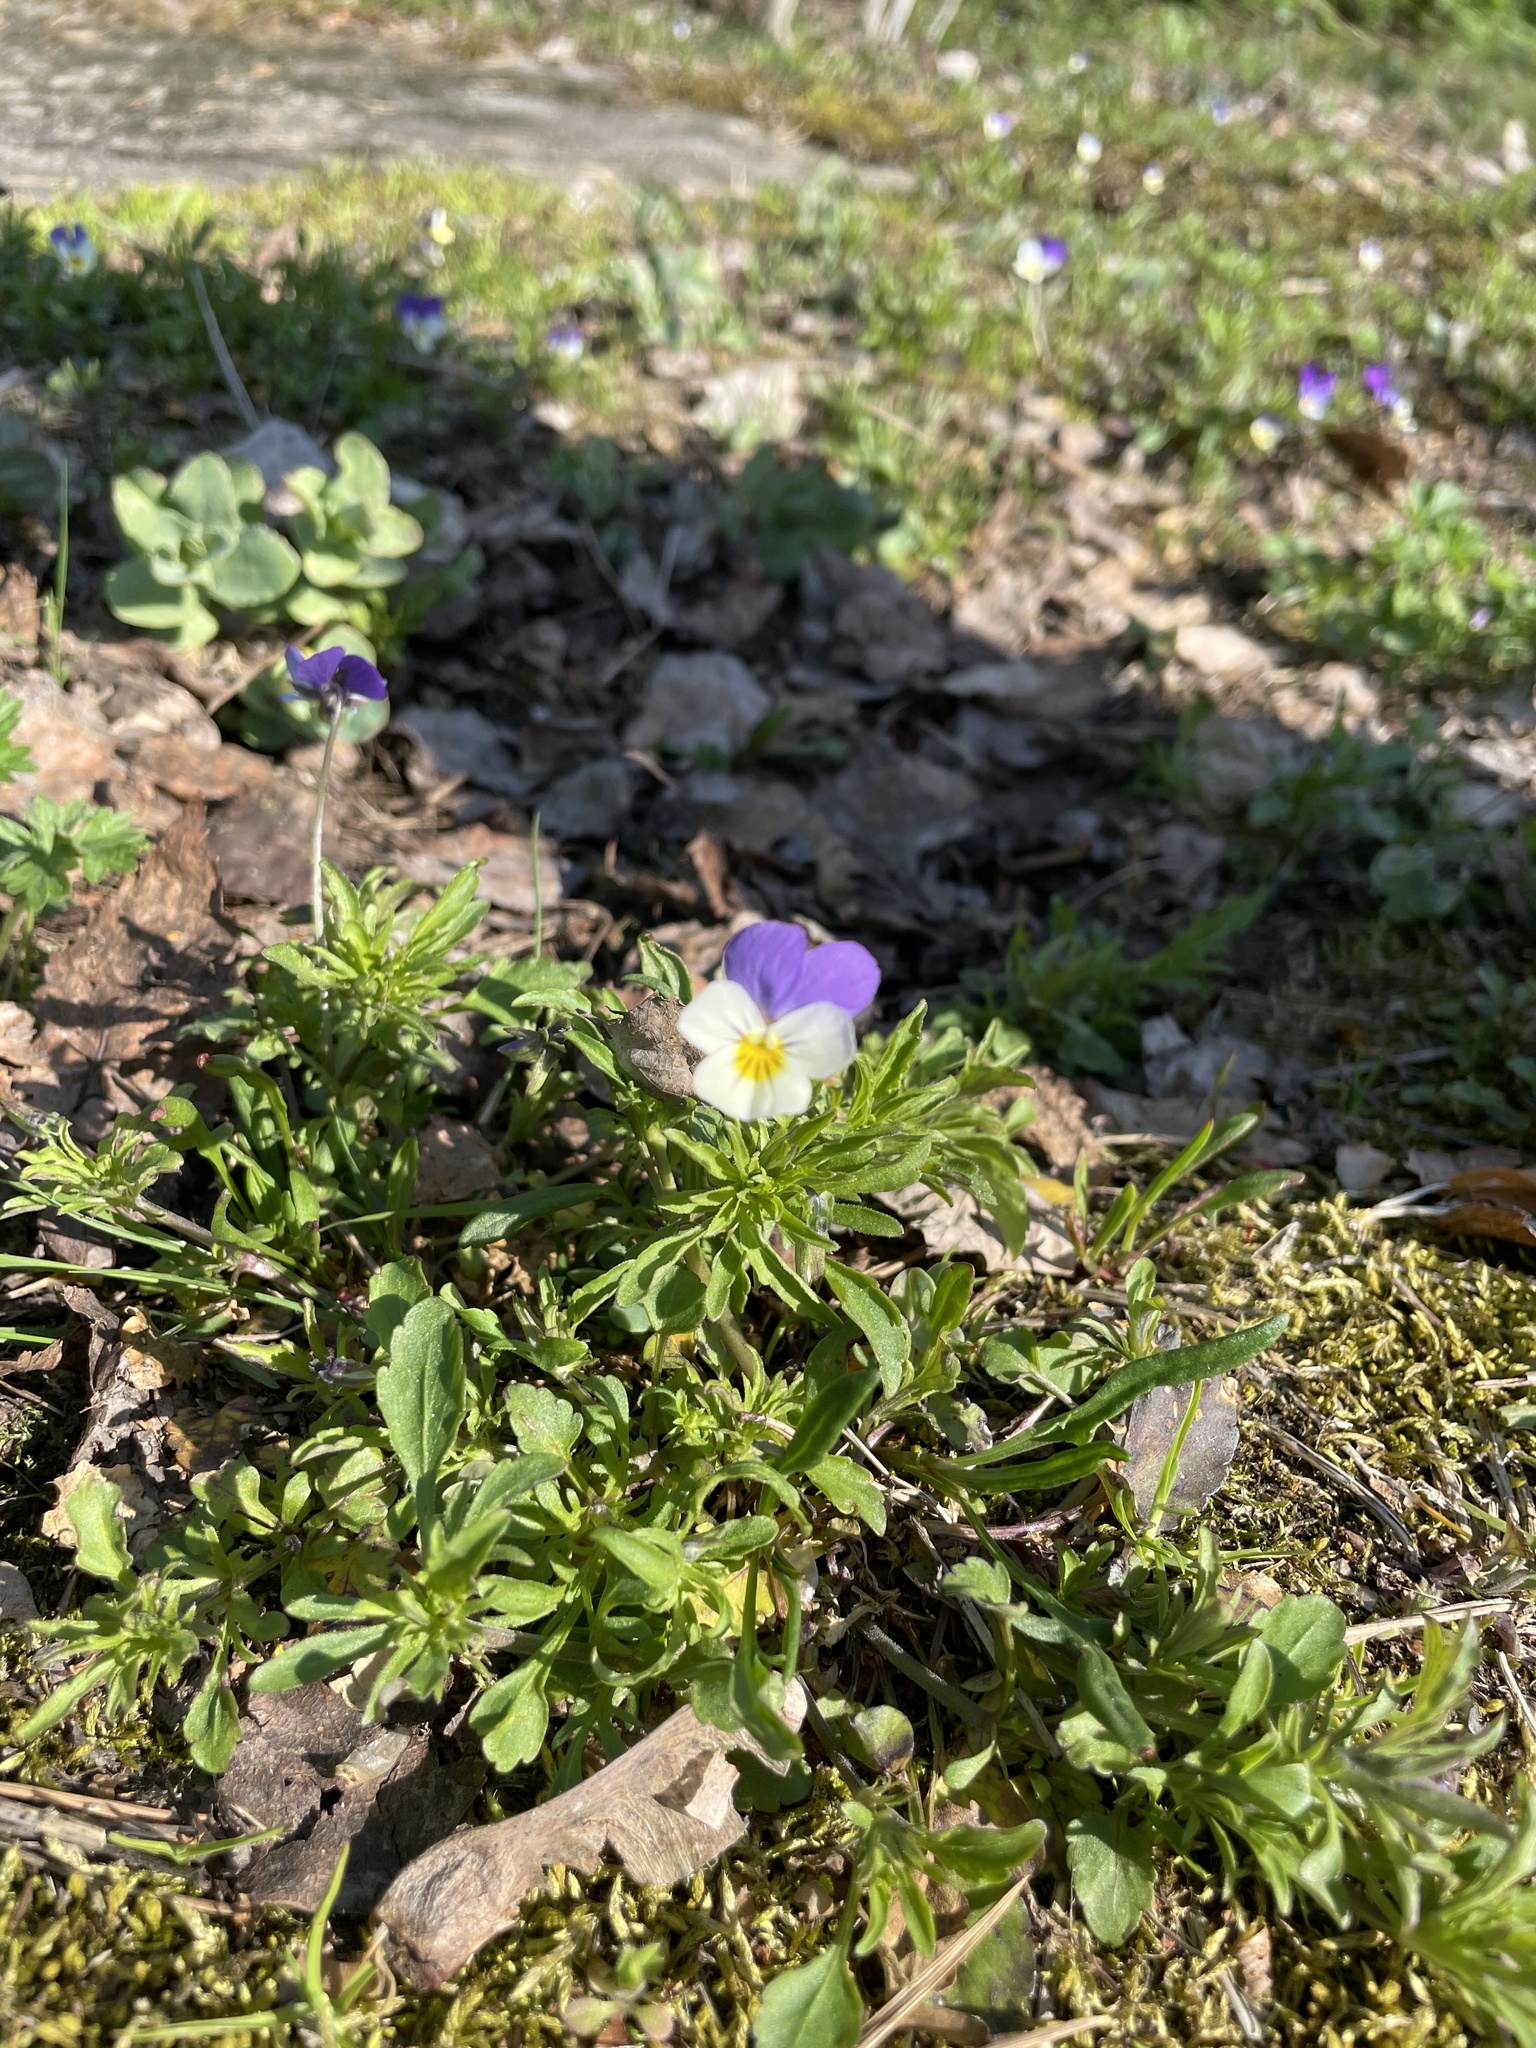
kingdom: Plantae
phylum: Tracheophyta
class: Magnoliopsida
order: Malpighiales
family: Violaceae
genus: Viola
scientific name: Viola tricolor
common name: Pansy
